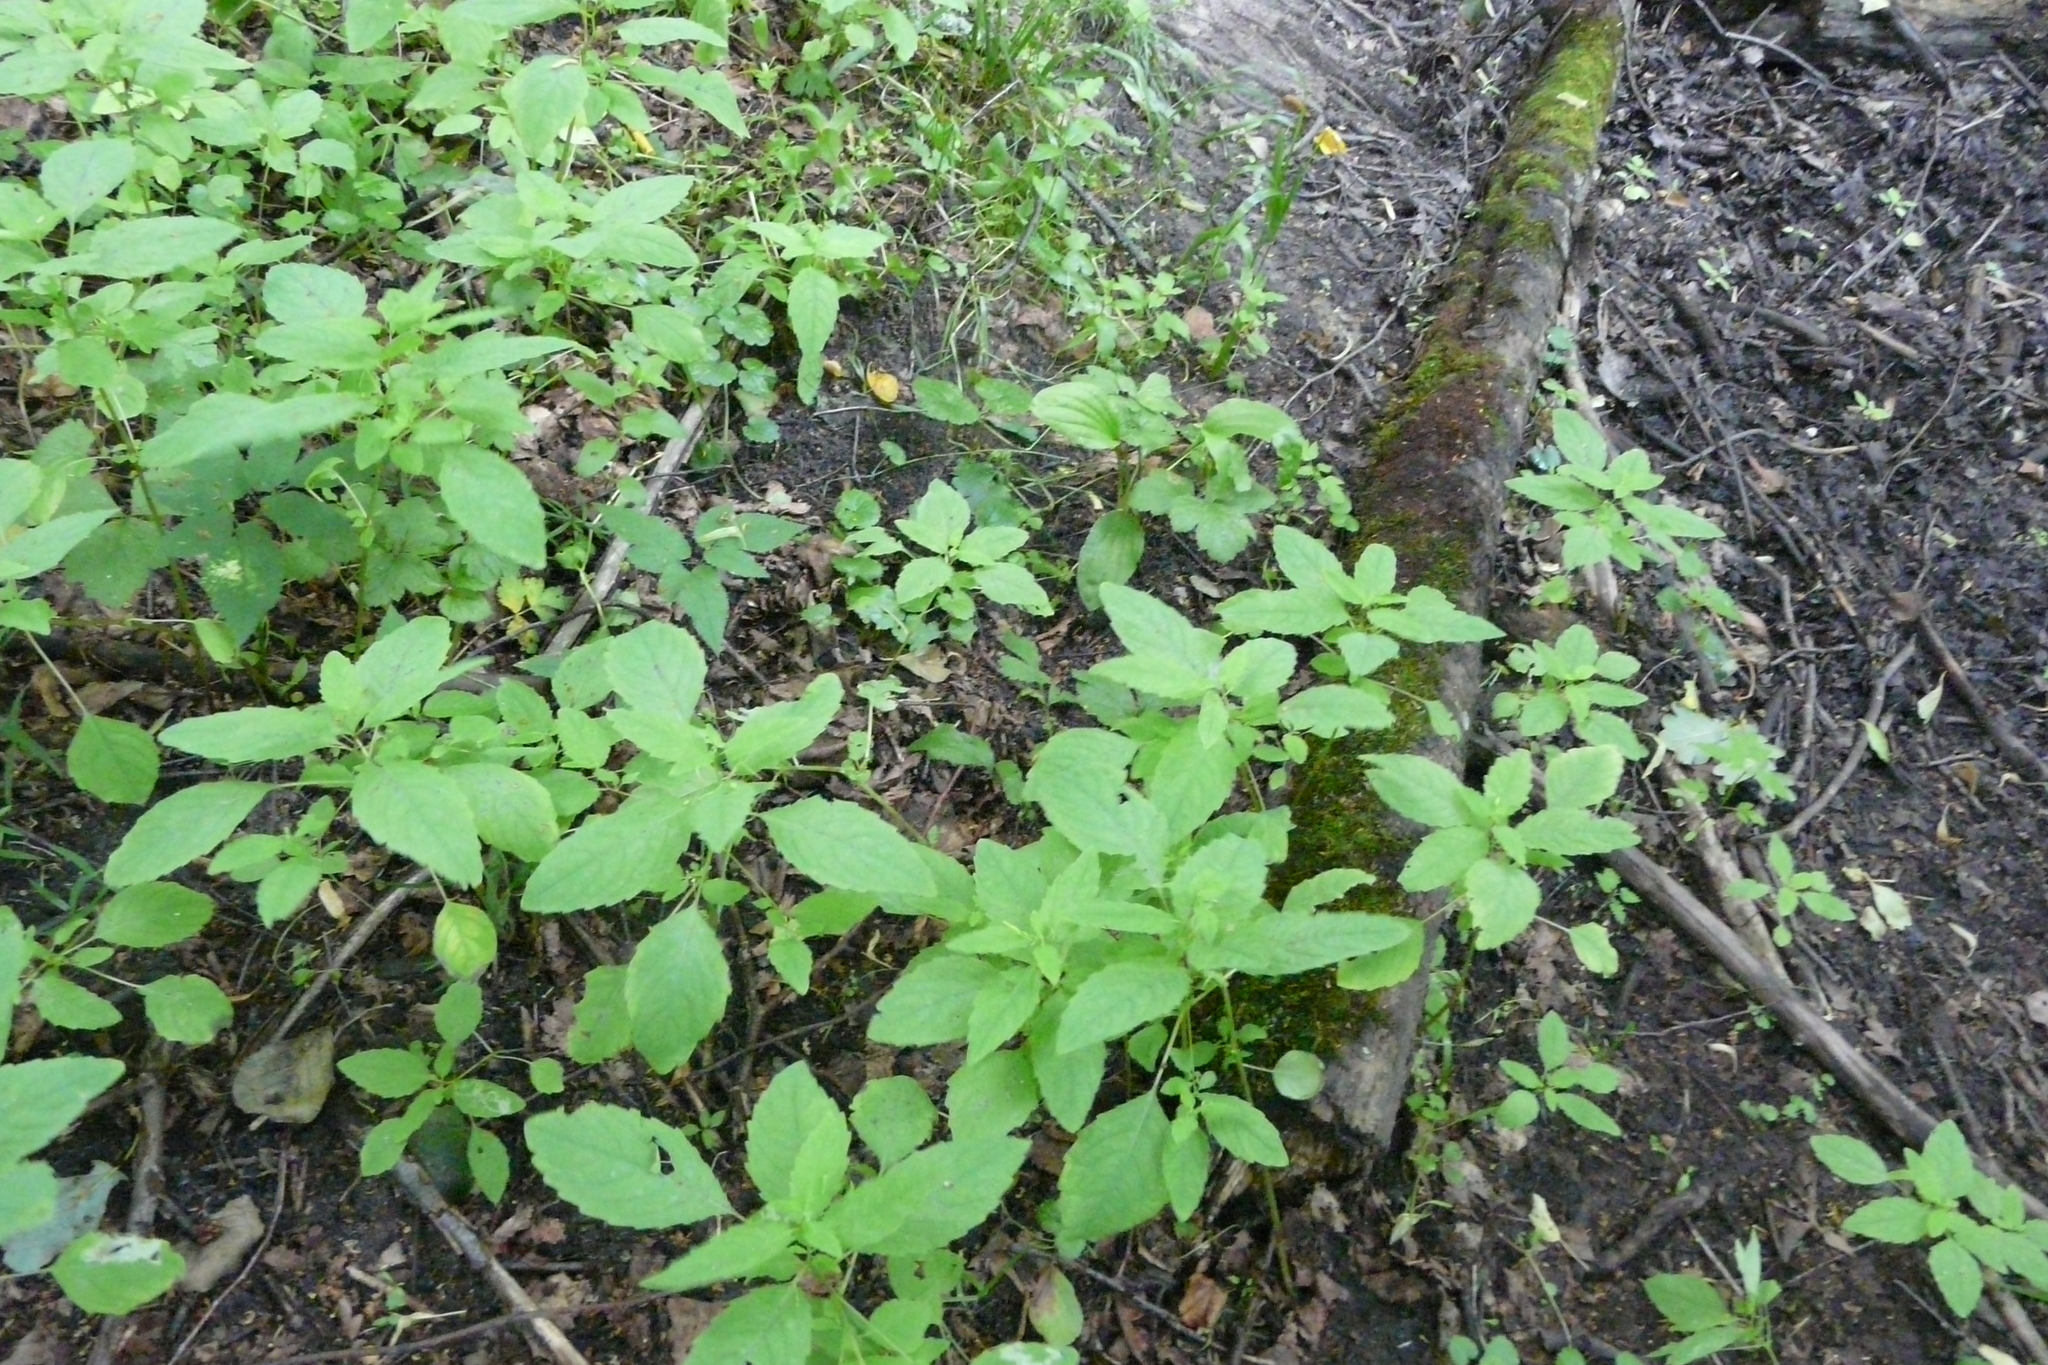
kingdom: Plantae
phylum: Tracheophyta
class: Magnoliopsida
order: Ericales
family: Balsaminaceae
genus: Impatiens
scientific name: Impatiens noli-tangere
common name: Touch-me-not balsam
